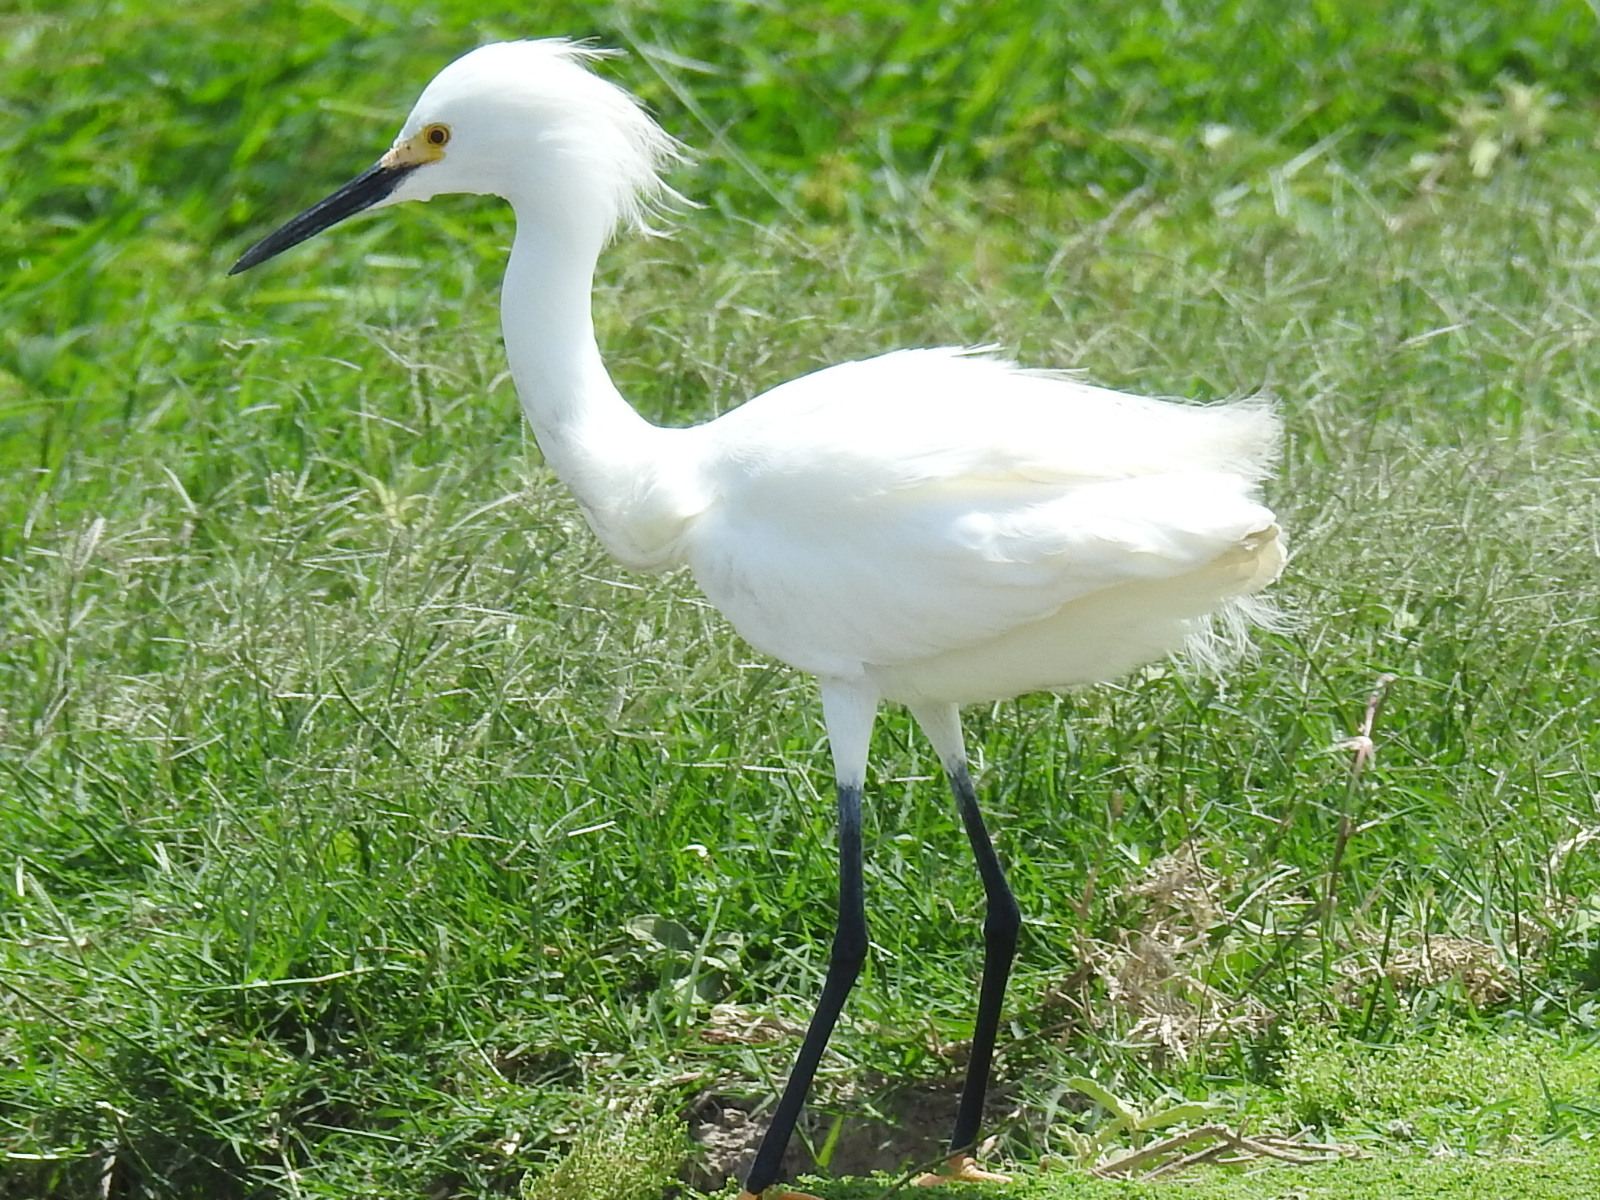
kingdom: Animalia
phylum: Chordata
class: Aves
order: Pelecaniformes
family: Ardeidae
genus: Egretta
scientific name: Egretta thula
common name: Snowy egret
